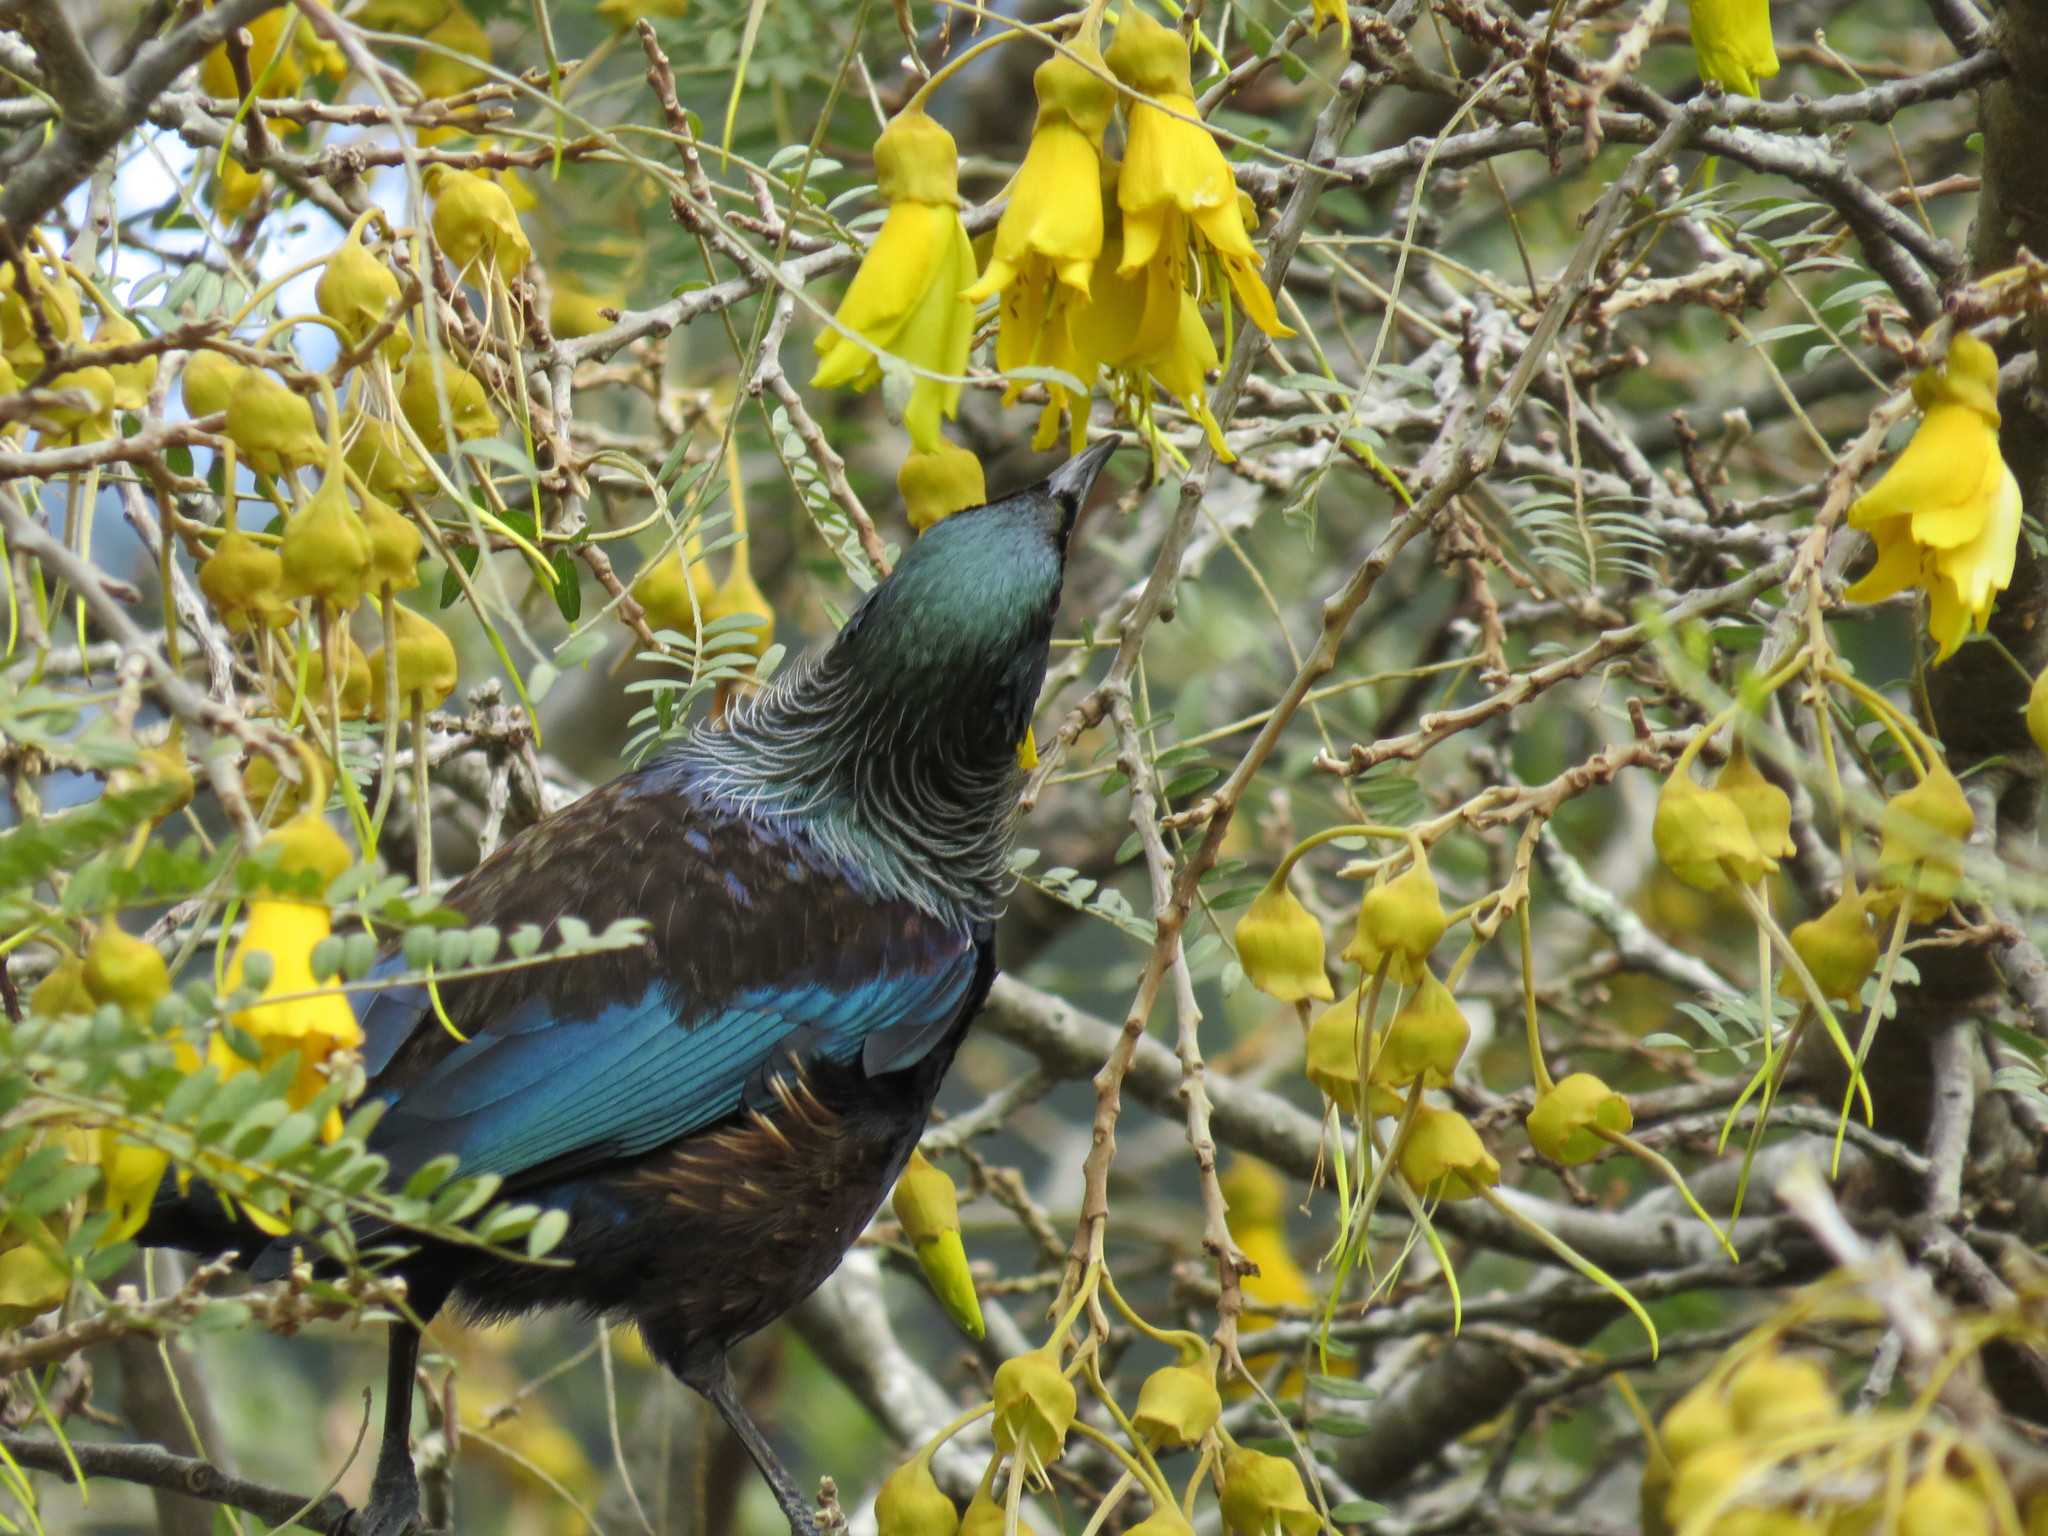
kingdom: Animalia
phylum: Chordata
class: Aves
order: Passeriformes
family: Meliphagidae
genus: Prosthemadera
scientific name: Prosthemadera novaeseelandiae
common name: Tui
